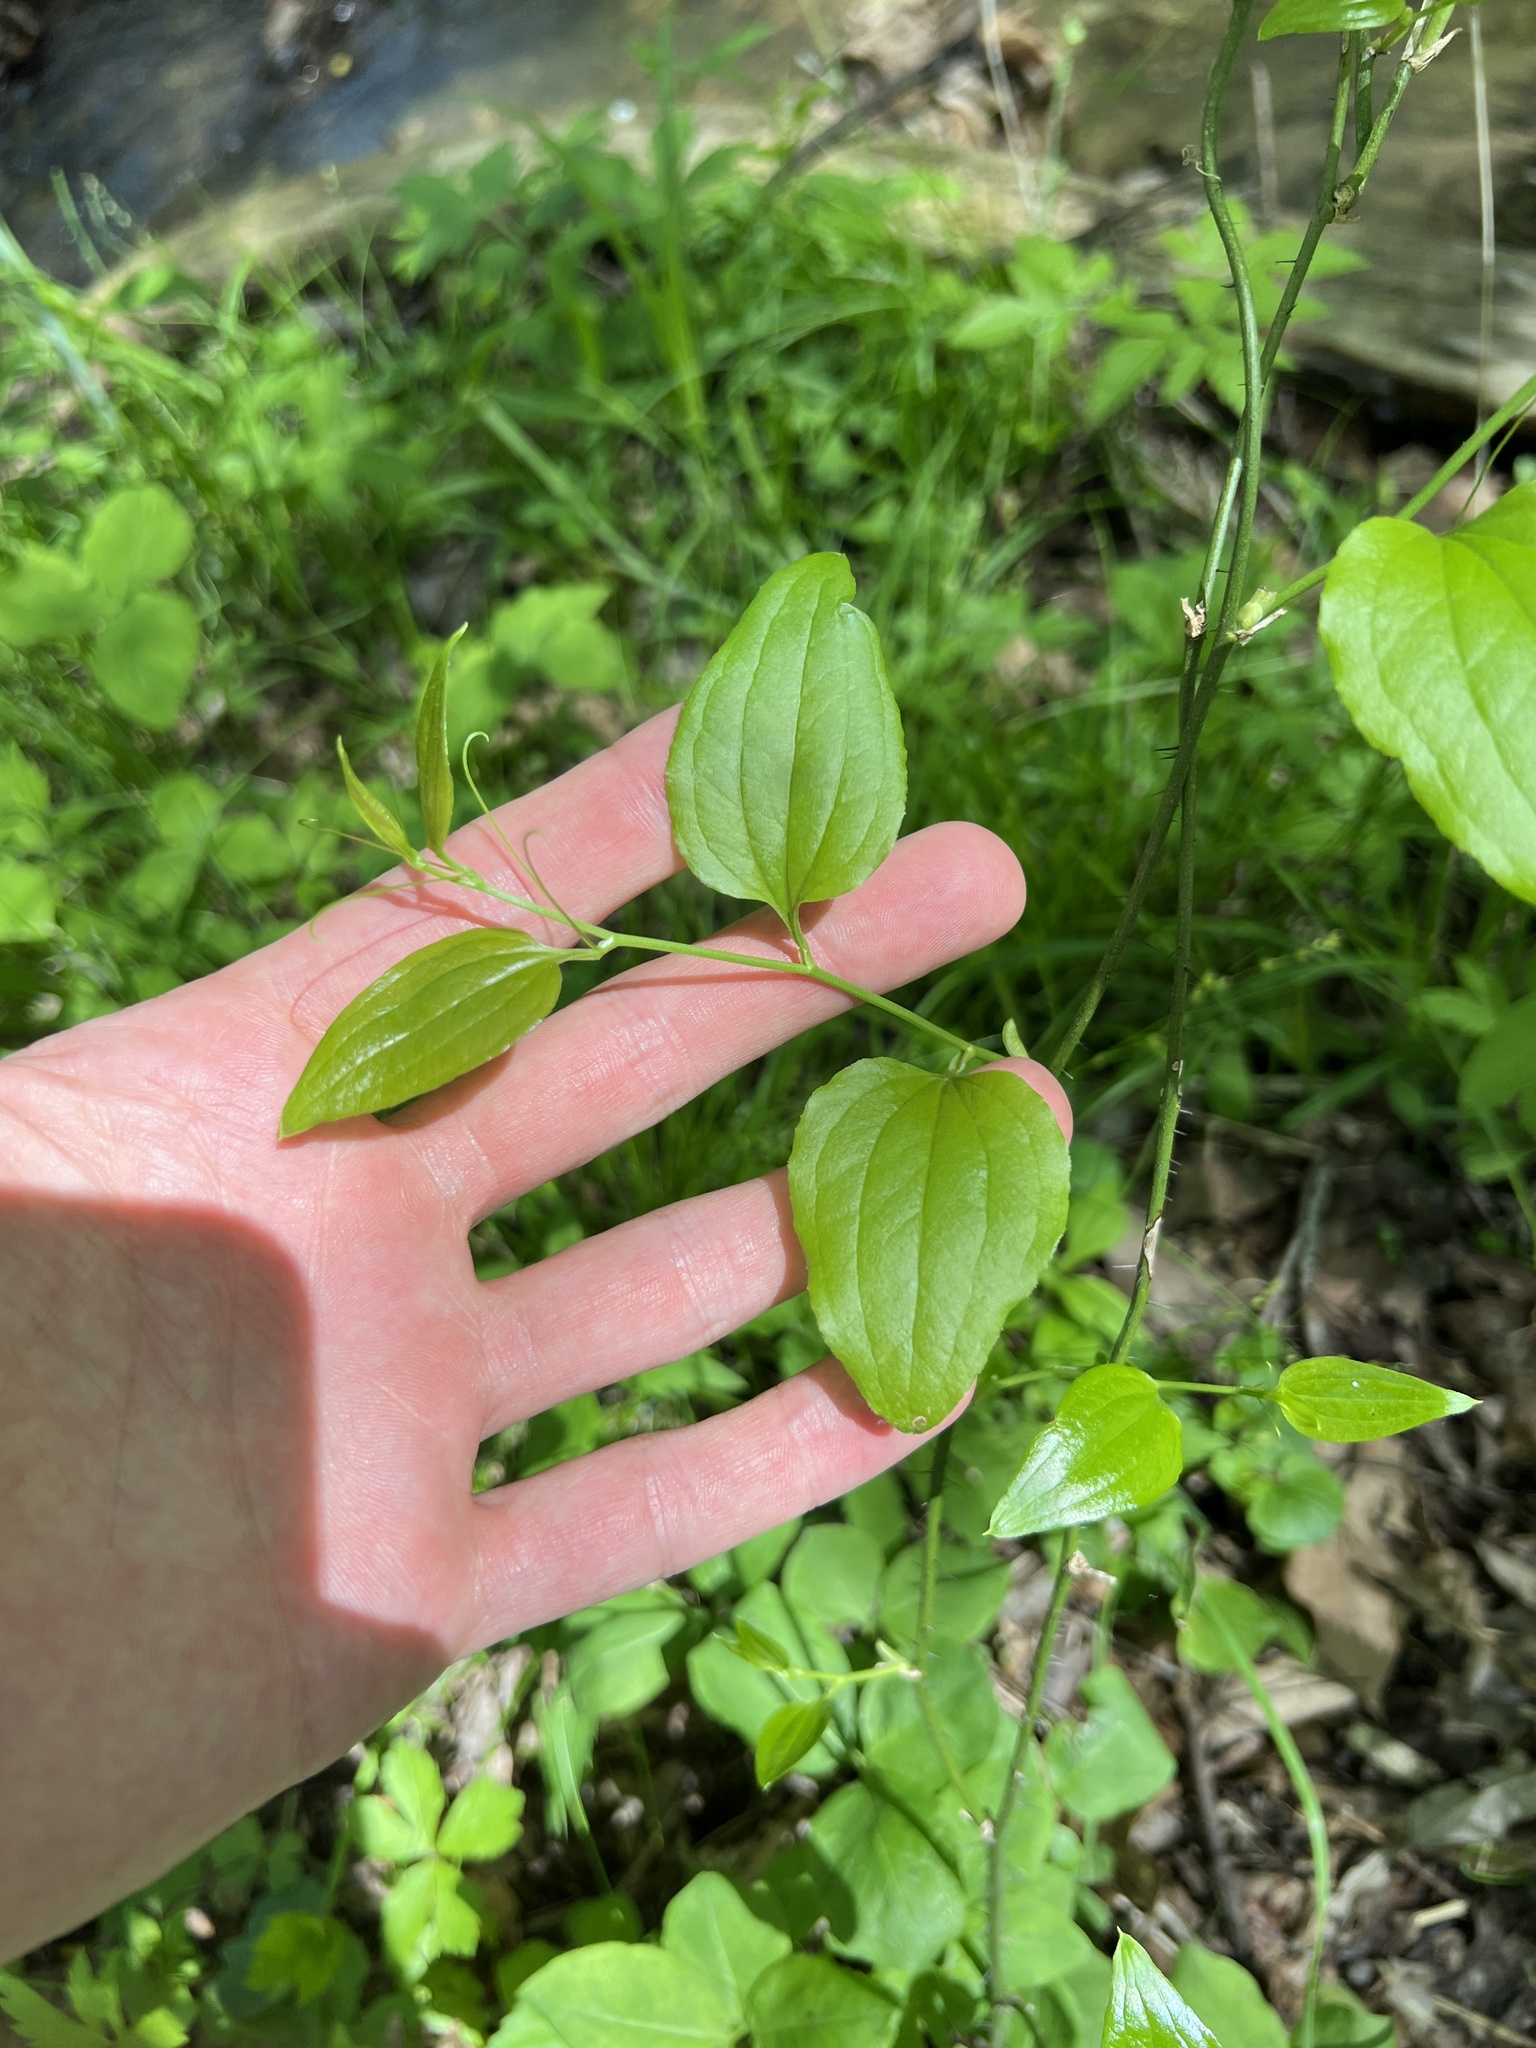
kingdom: Plantae
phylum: Tracheophyta
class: Liliopsida
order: Liliales
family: Smilacaceae
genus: Smilax
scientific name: Smilax tamnoides
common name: Hellfetter
